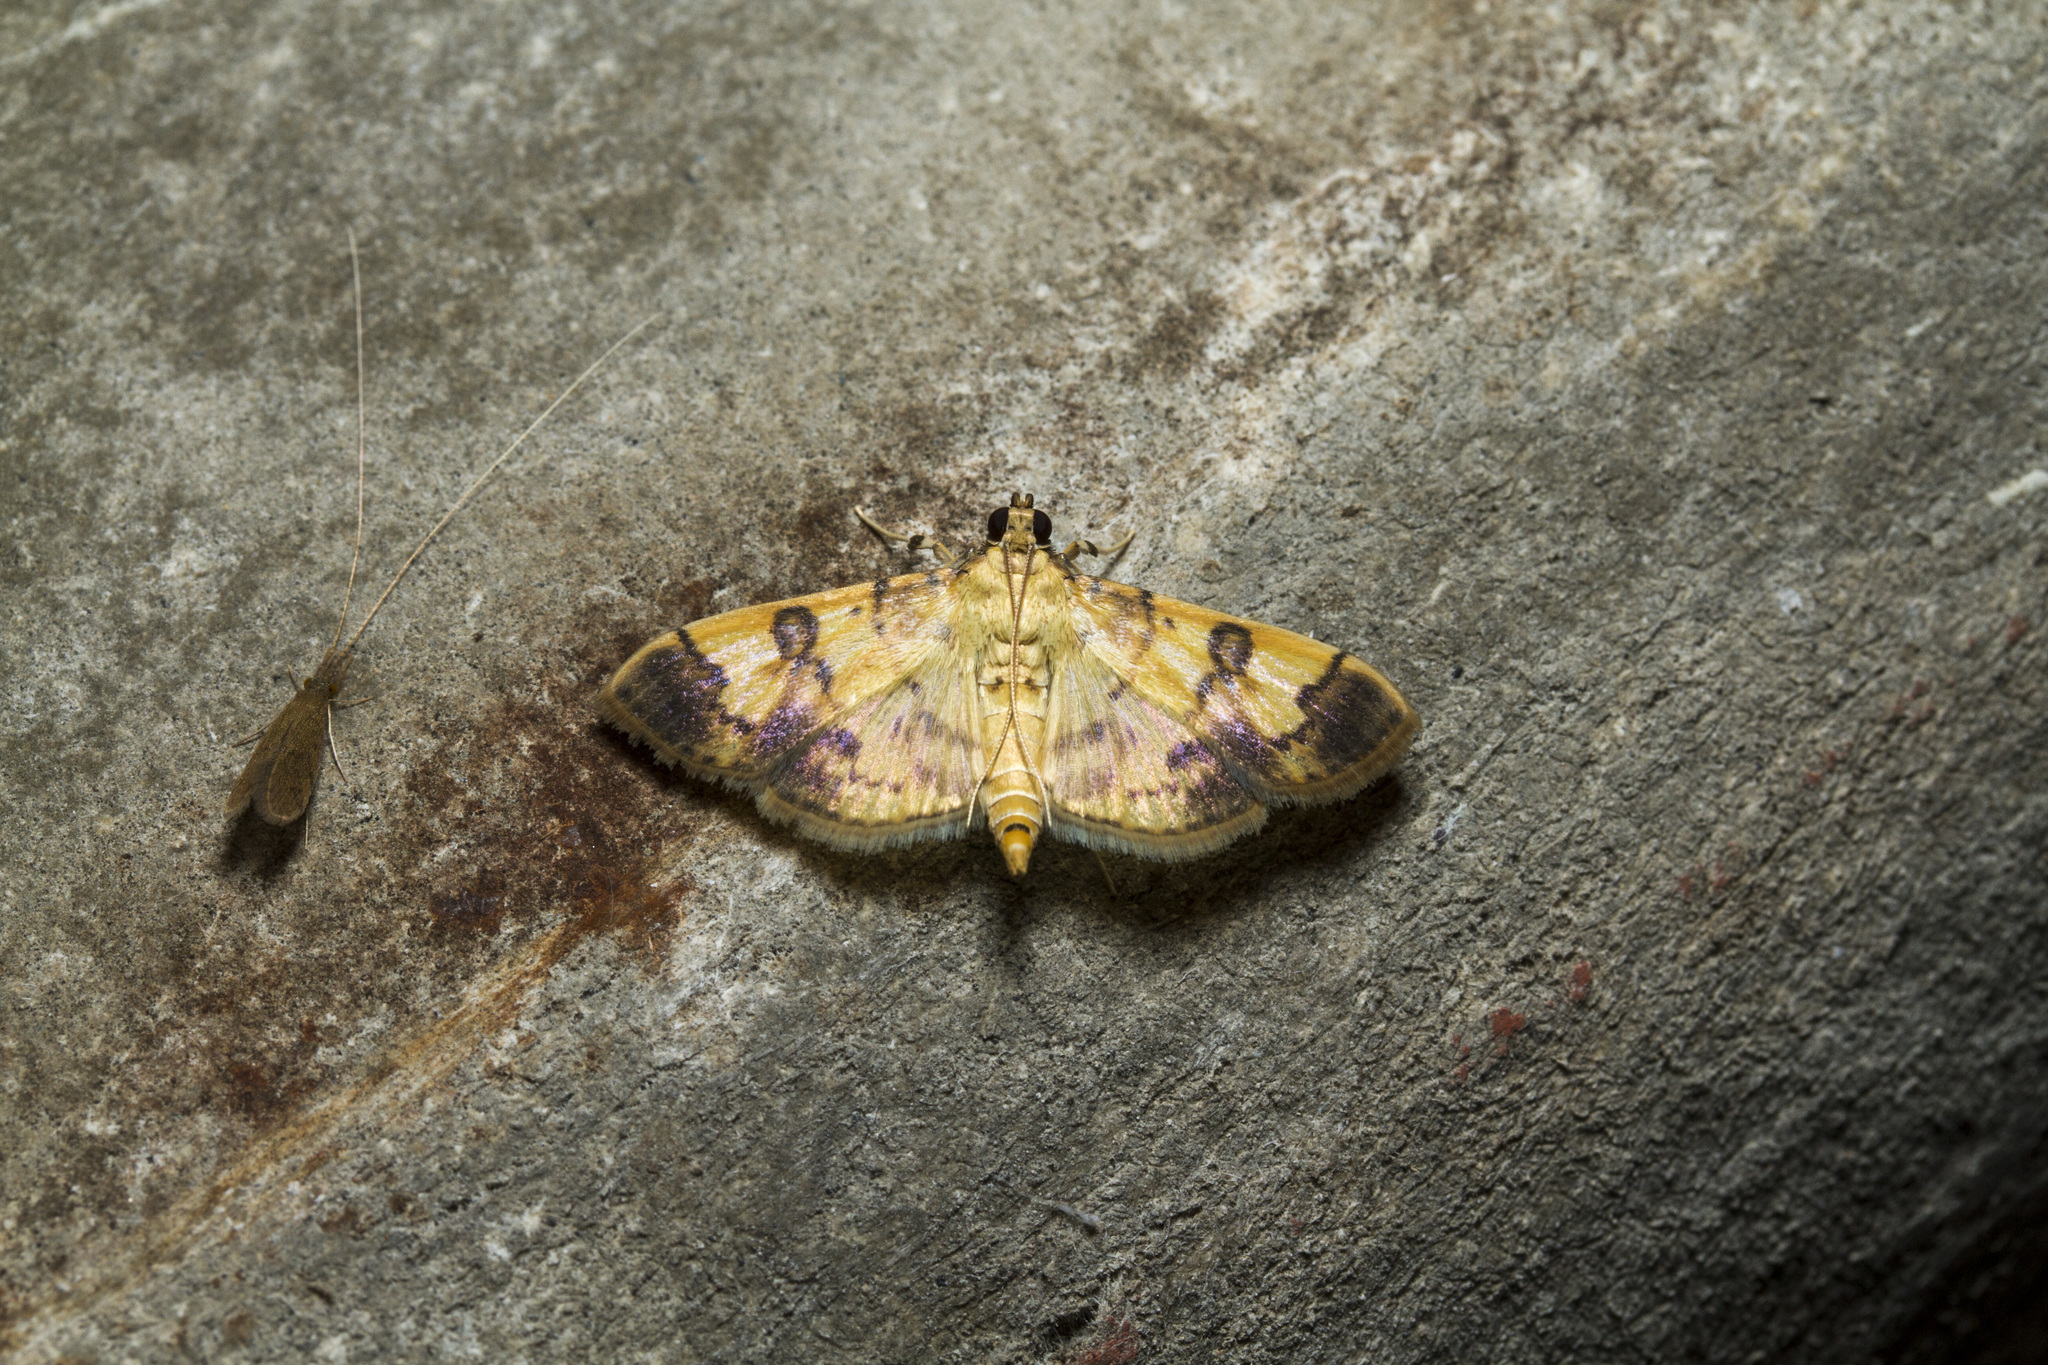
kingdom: Animalia
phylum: Arthropoda
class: Insecta
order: Lepidoptera
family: Crambidae
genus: Patania
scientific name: Patania iopasalis
